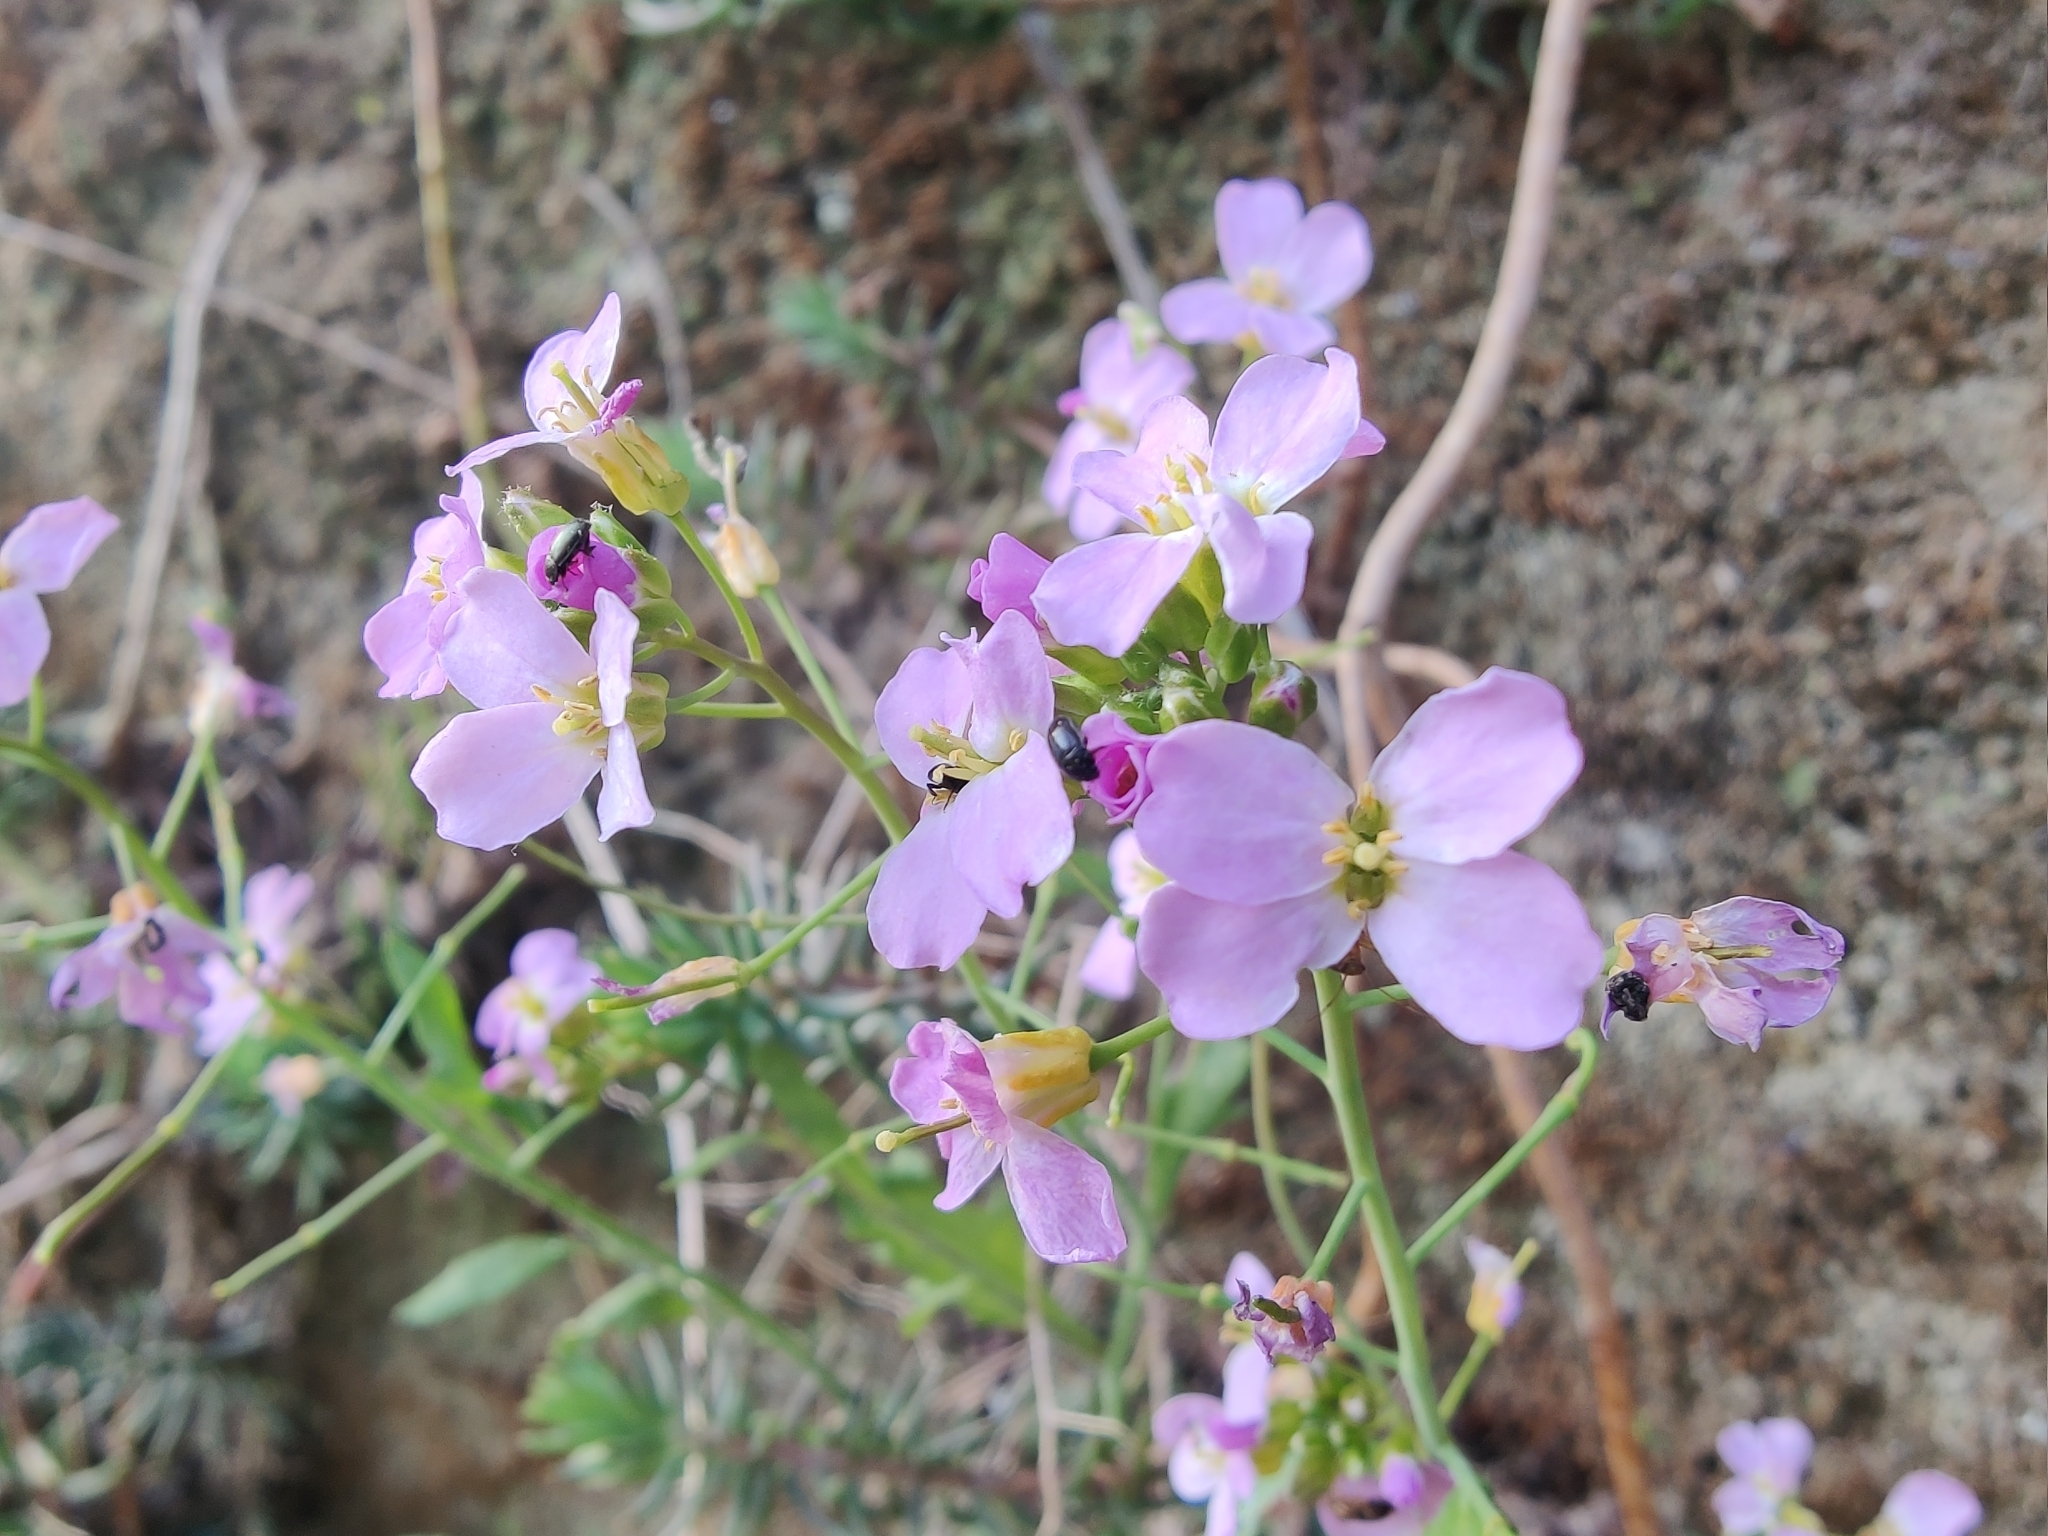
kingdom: Plantae
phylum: Tracheophyta
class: Magnoliopsida
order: Brassicales
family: Brassicaceae
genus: Arabidopsis
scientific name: Arabidopsis arenosa
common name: Sand rock-cress
